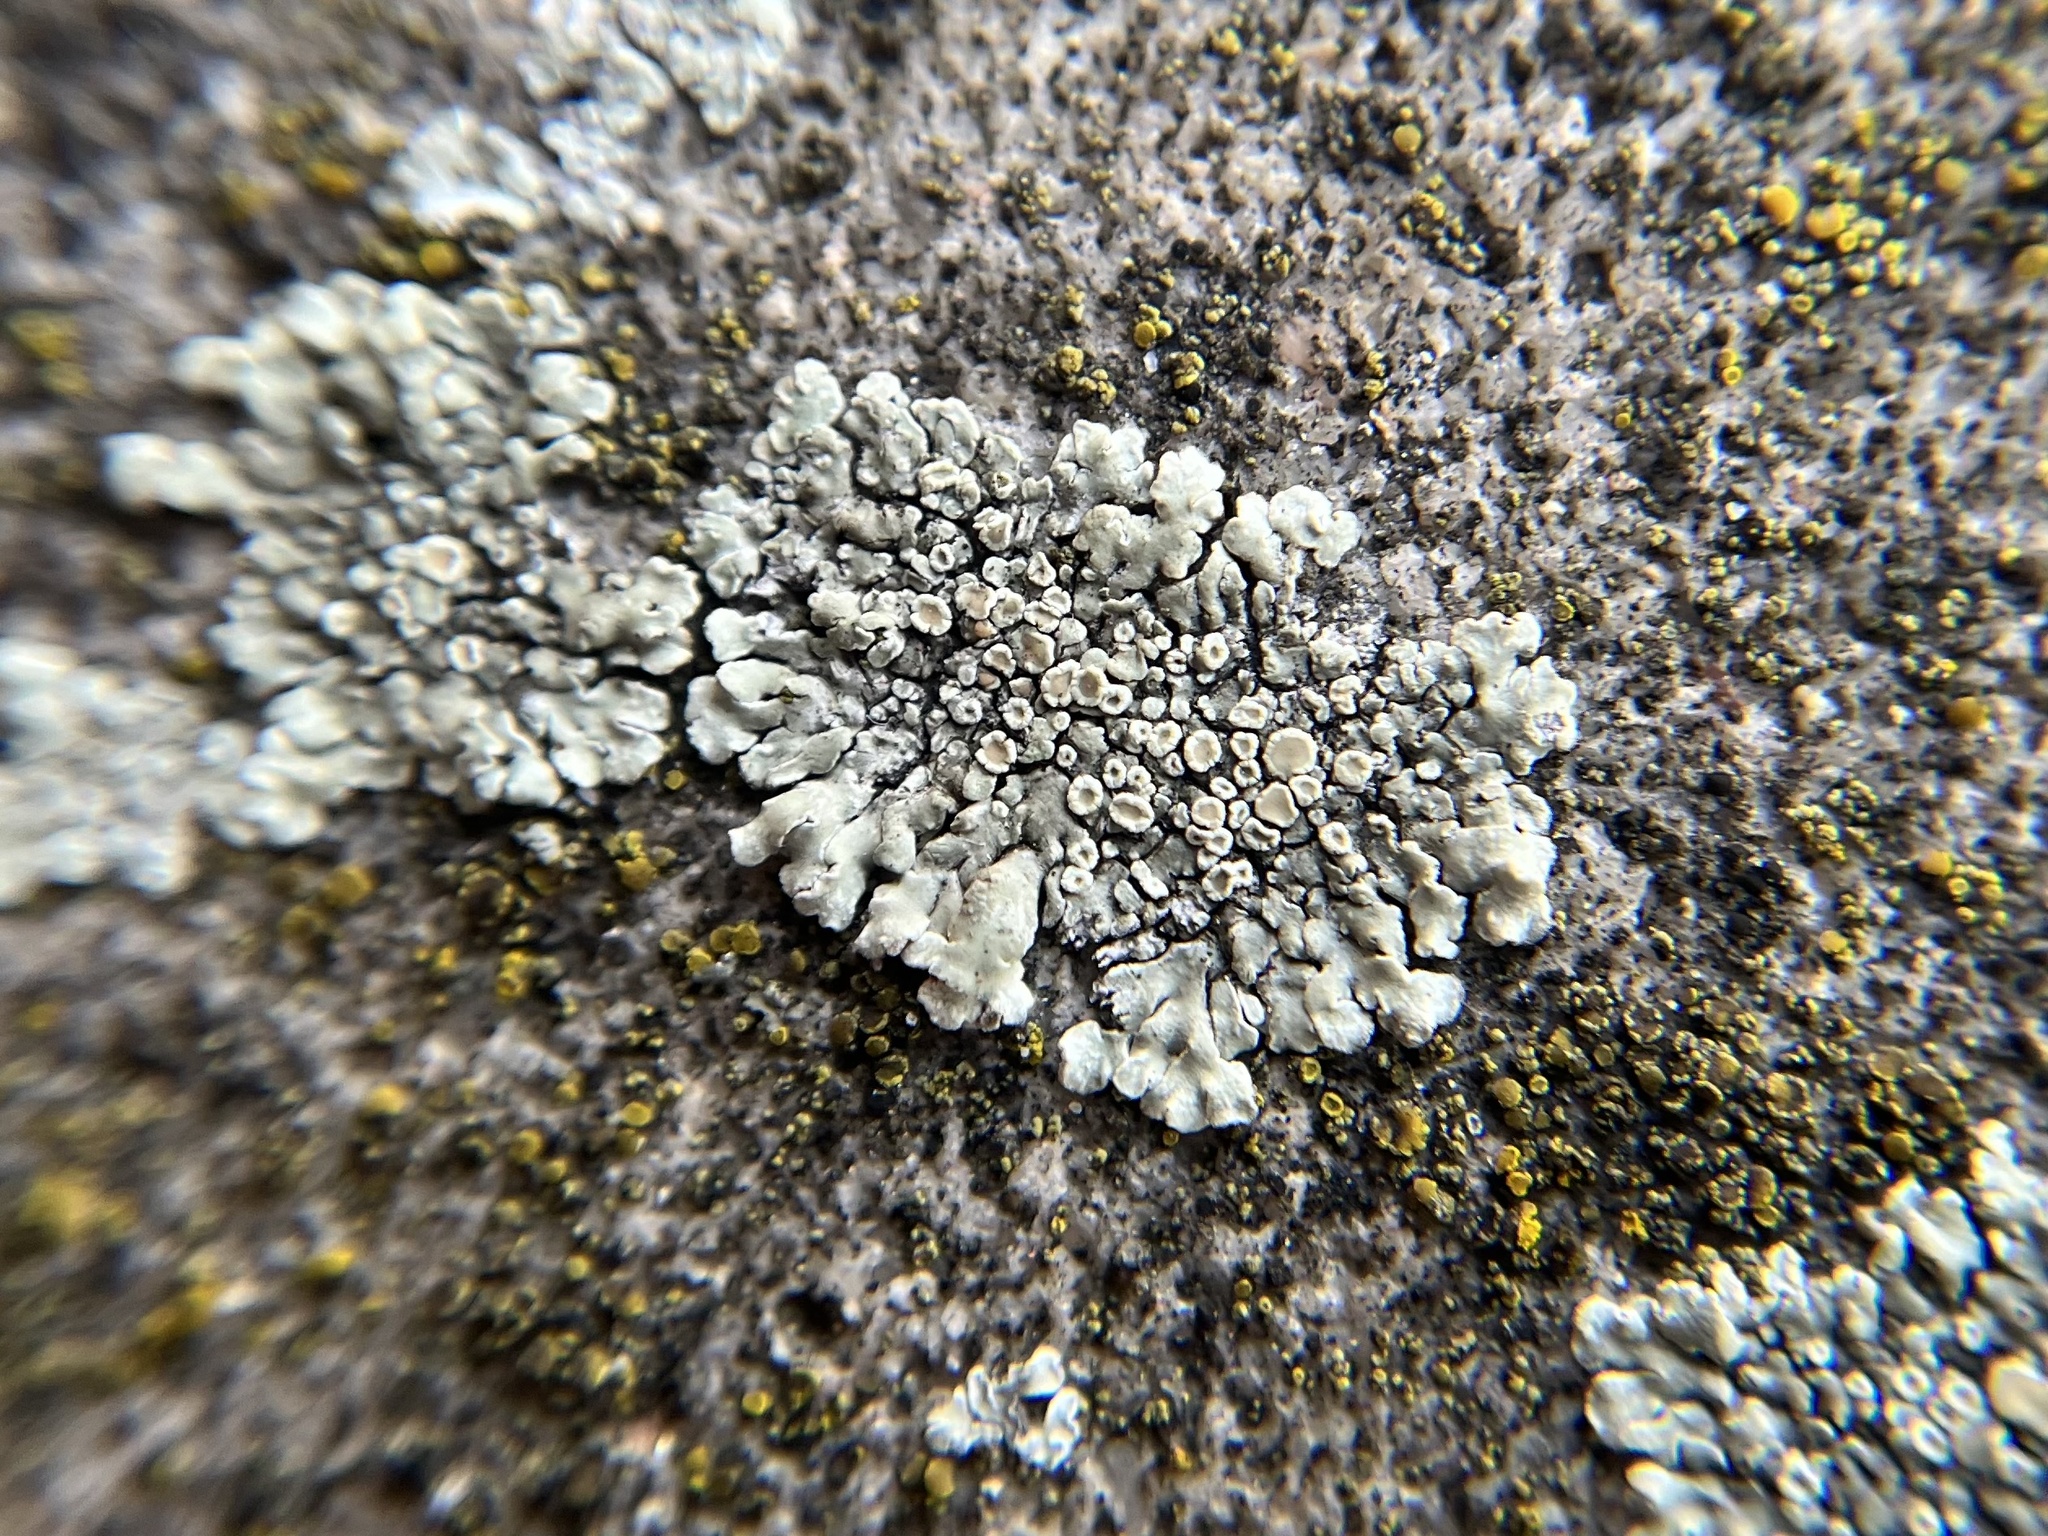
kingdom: Fungi
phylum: Ascomycota
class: Lecanoromycetes
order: Lecanorales
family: Lecanoraceae
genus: Protoparmeliopsis
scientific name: Protoparmeliopsis muralis
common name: Stonewall rim lichen
